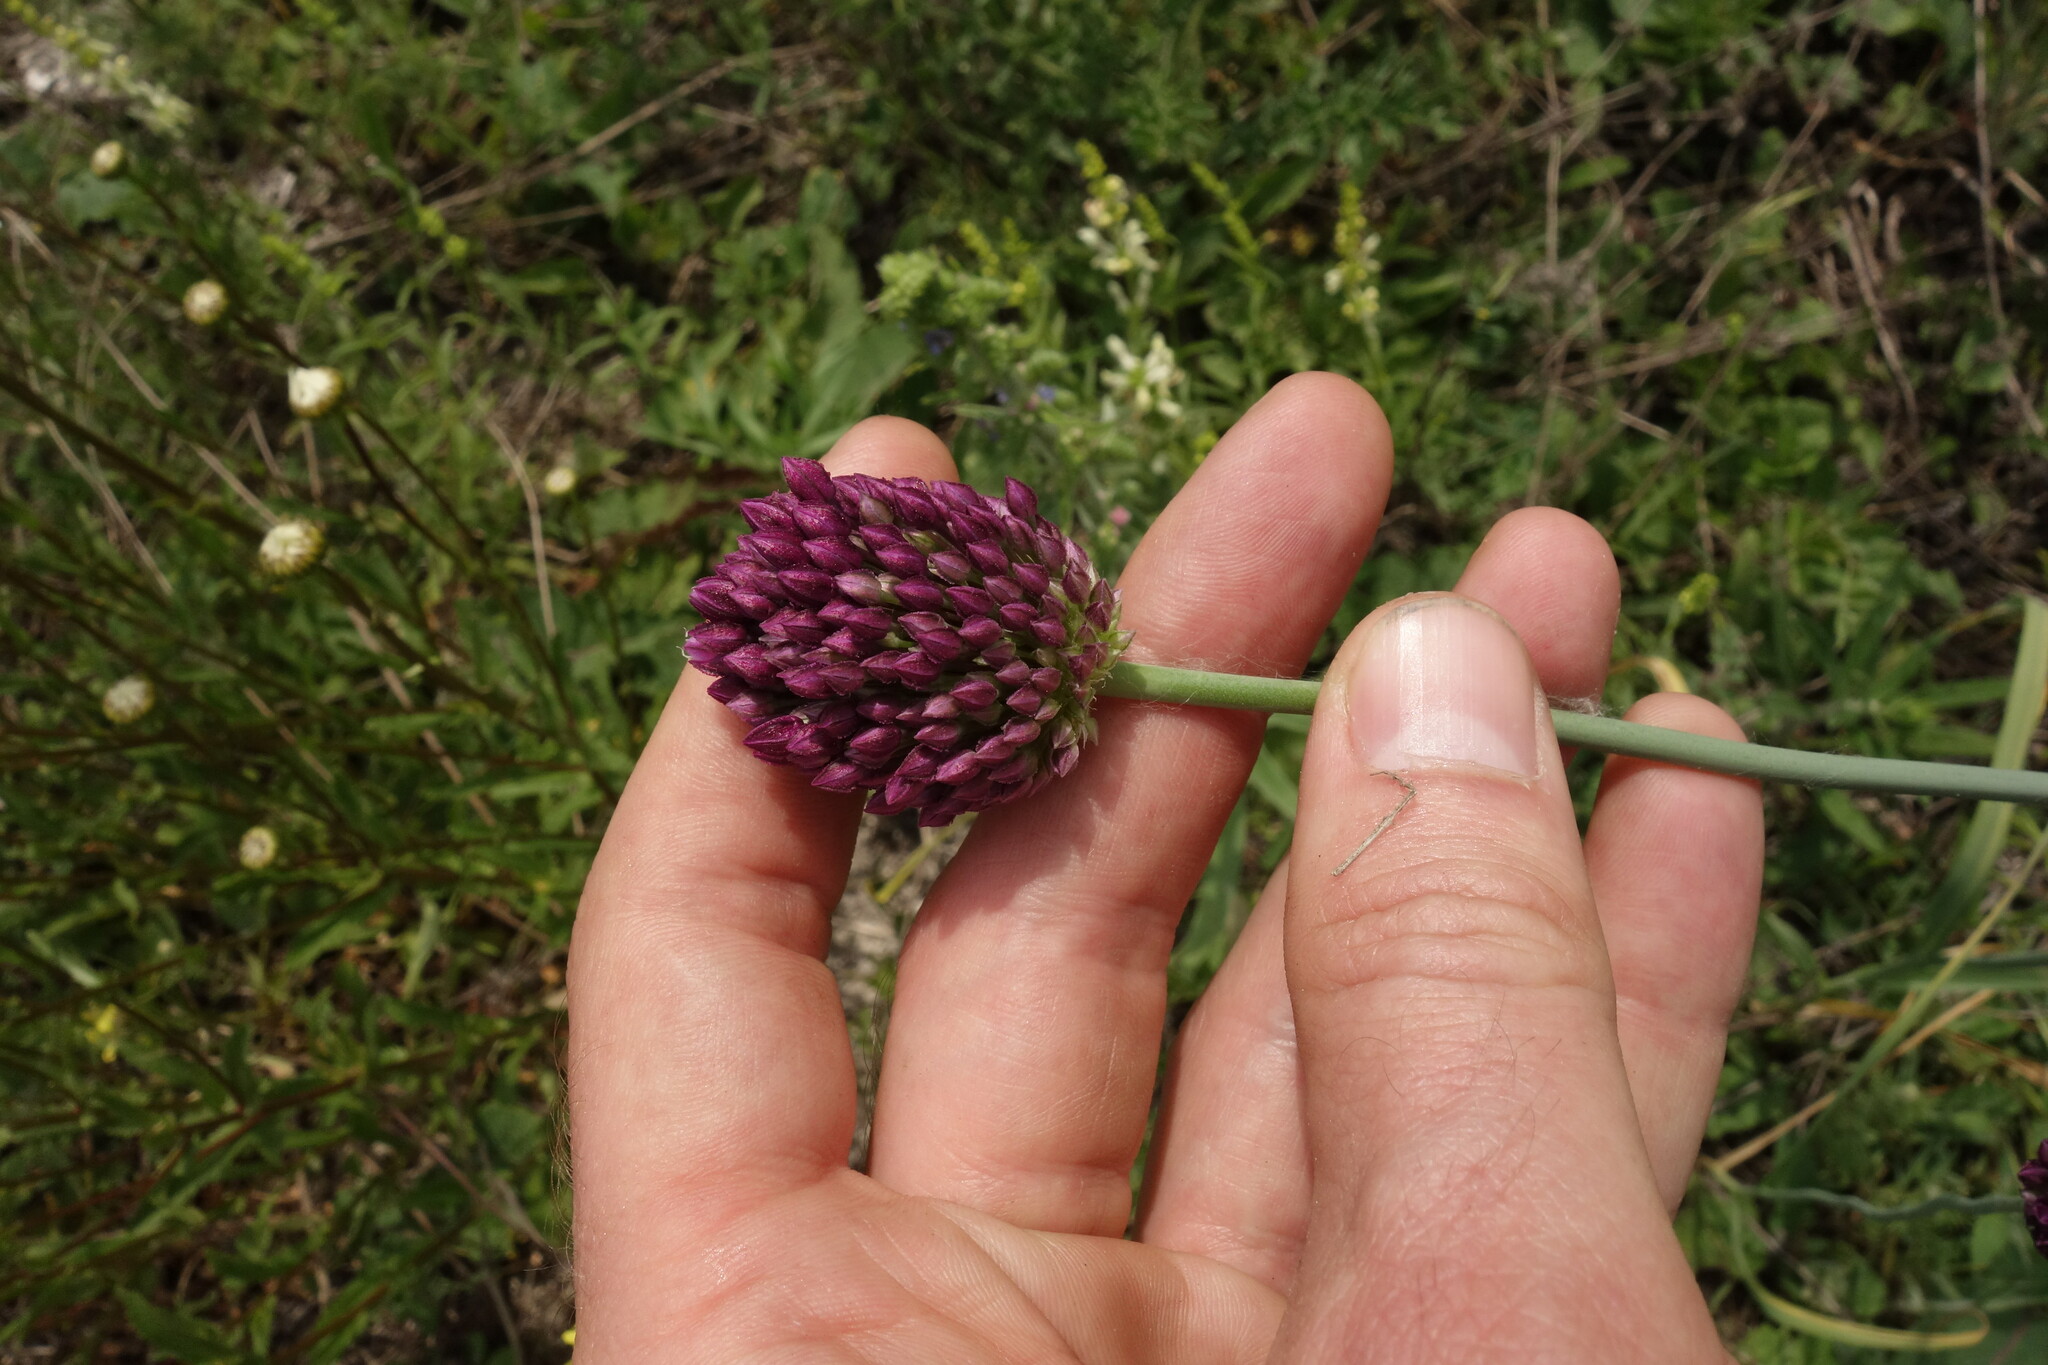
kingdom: Plantae
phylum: Tracheophyta
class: Liliopsida
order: Asparagales
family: Amaryllidaceae
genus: Allium
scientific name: Allium rotundum
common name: Sand leek
